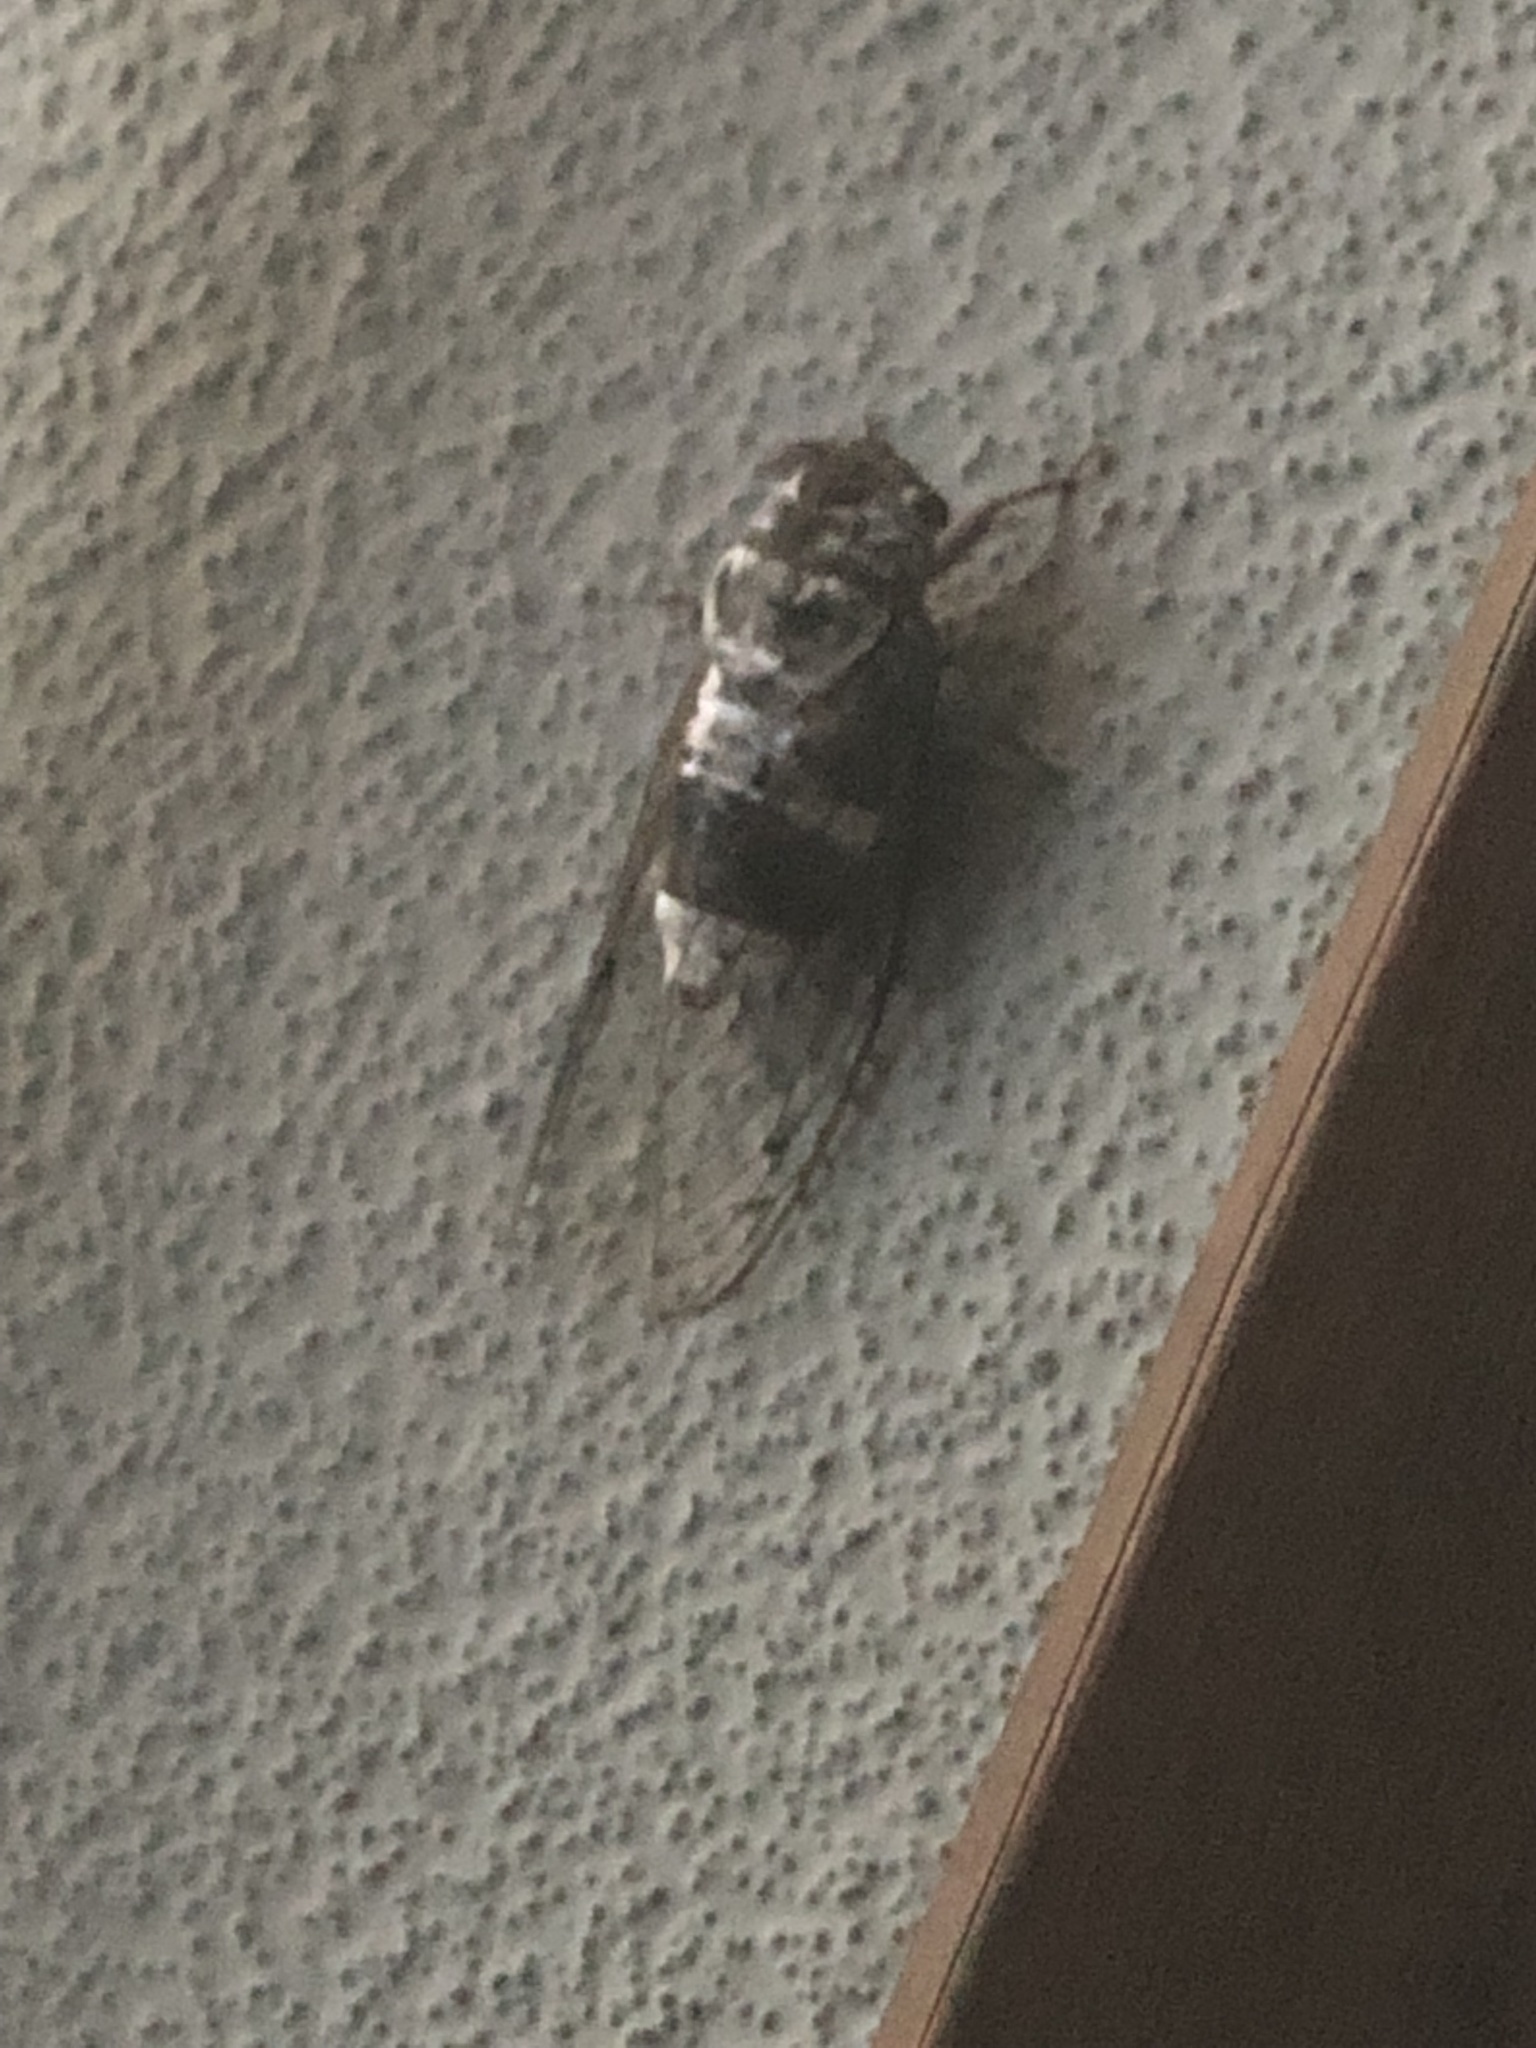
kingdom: Animalia
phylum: Arthropoda
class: Insecta
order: Hemiptera
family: Cicadidae
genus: Diceroprocta
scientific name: Diceroprocta grossa
